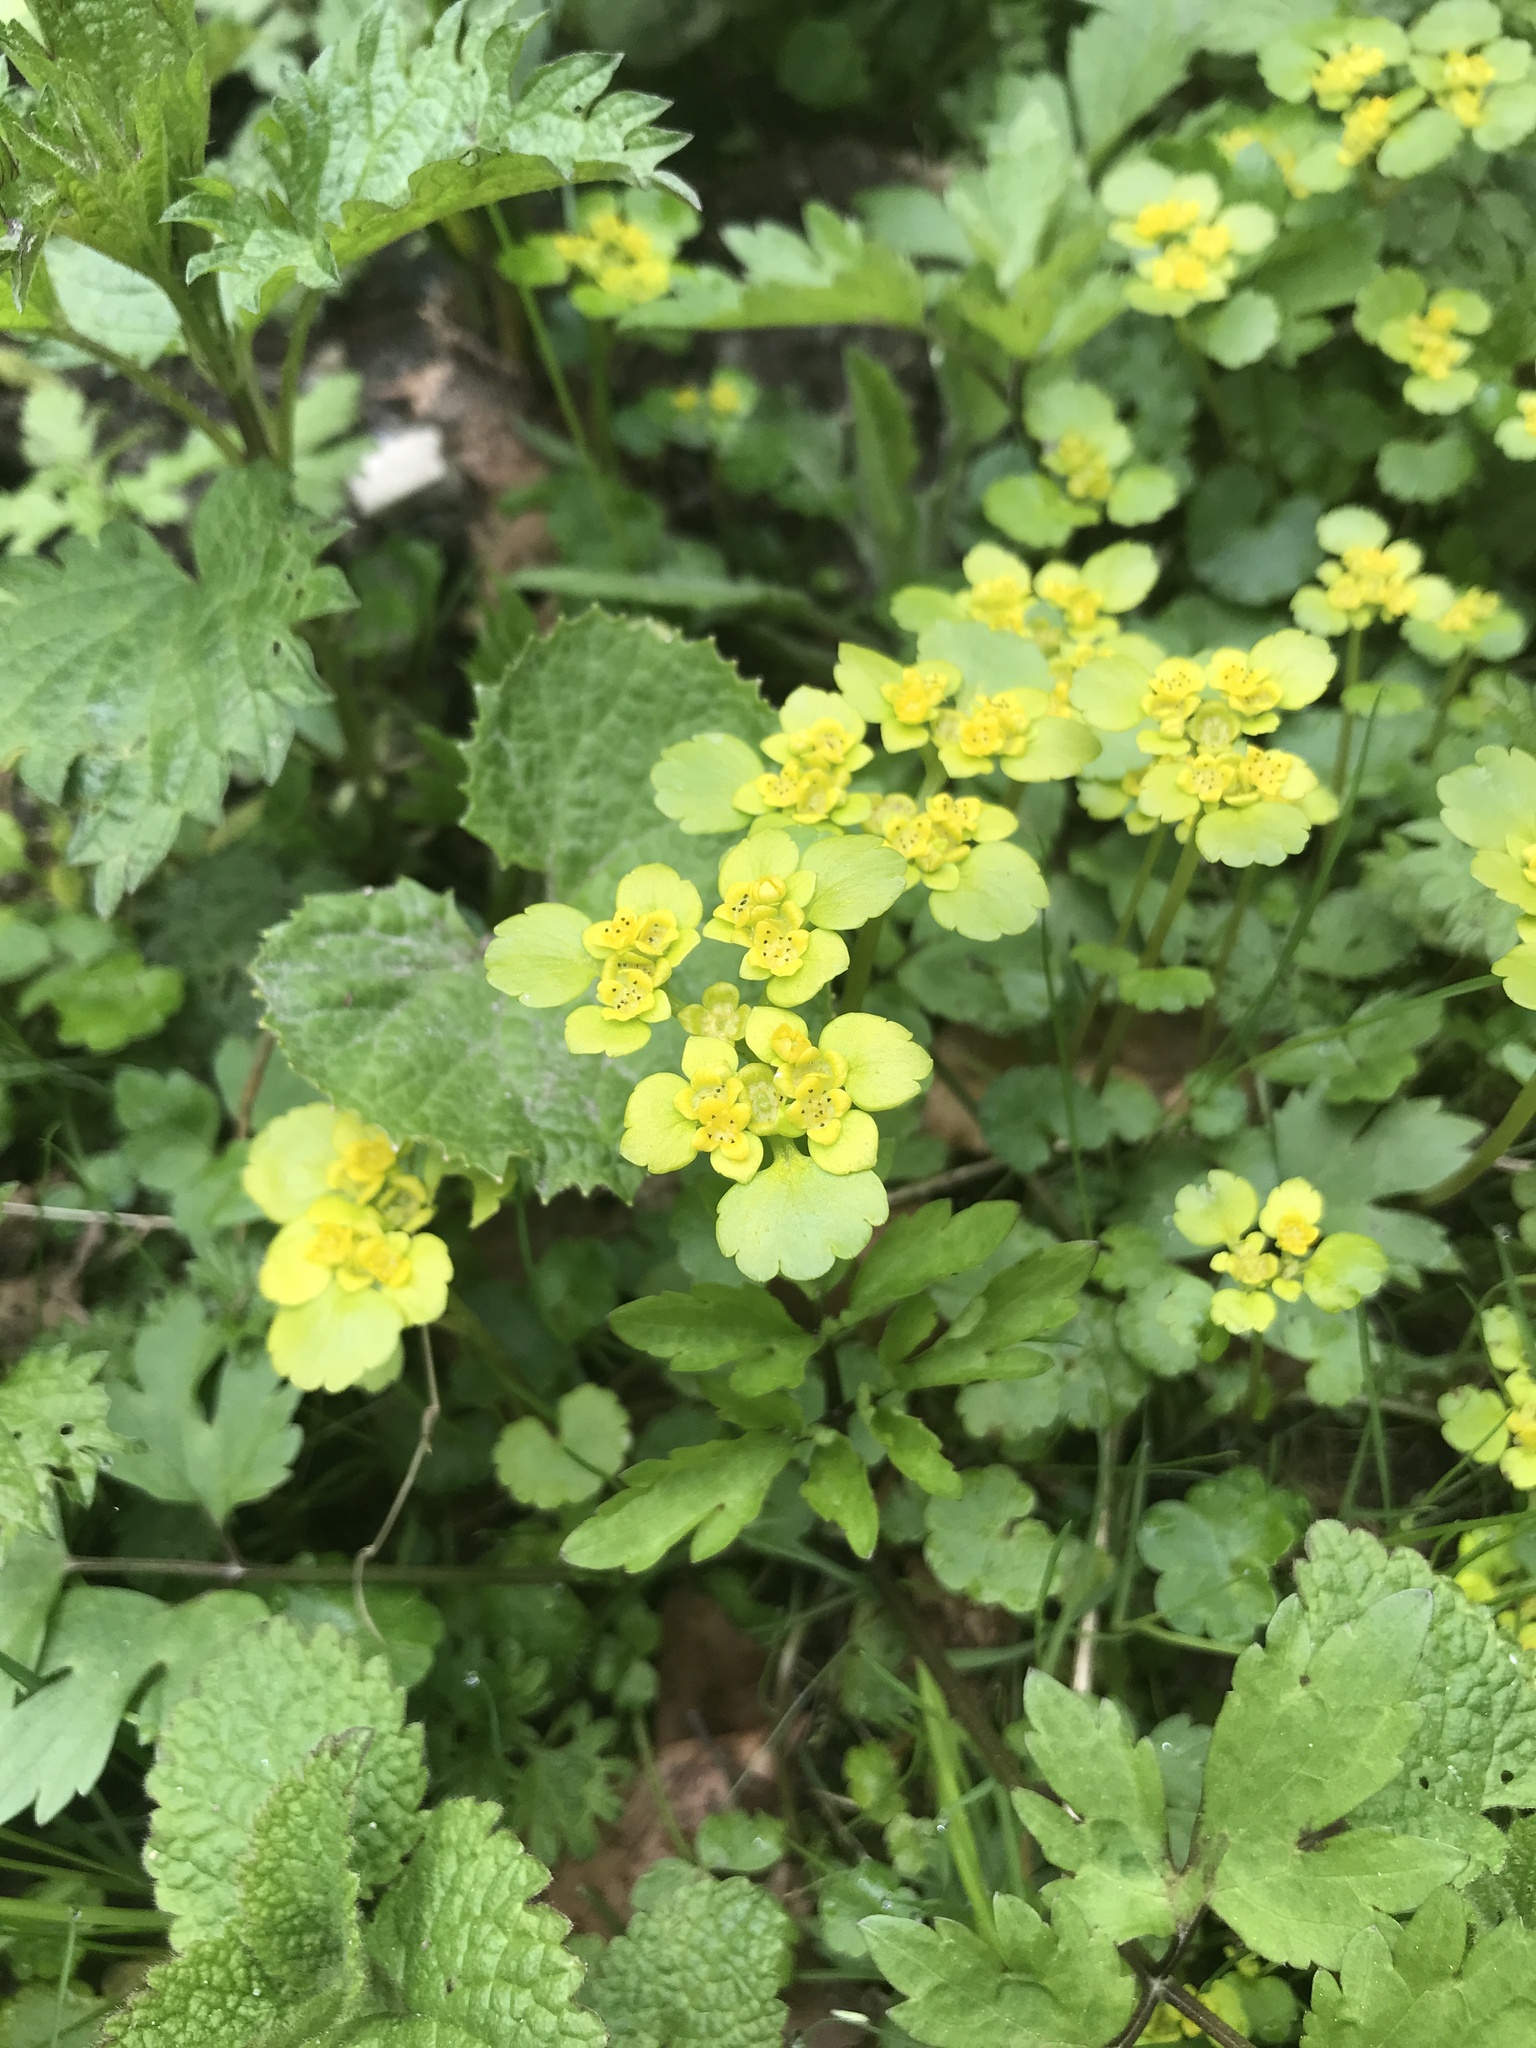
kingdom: Plantae
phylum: Tracheophyta
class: Magnoliopsida
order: Saxifragales
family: Saxifragaceae
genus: Chrysosplenium
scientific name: Chrysosplenium alternifolium
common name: Alternate-leaved golden-saxifrage
